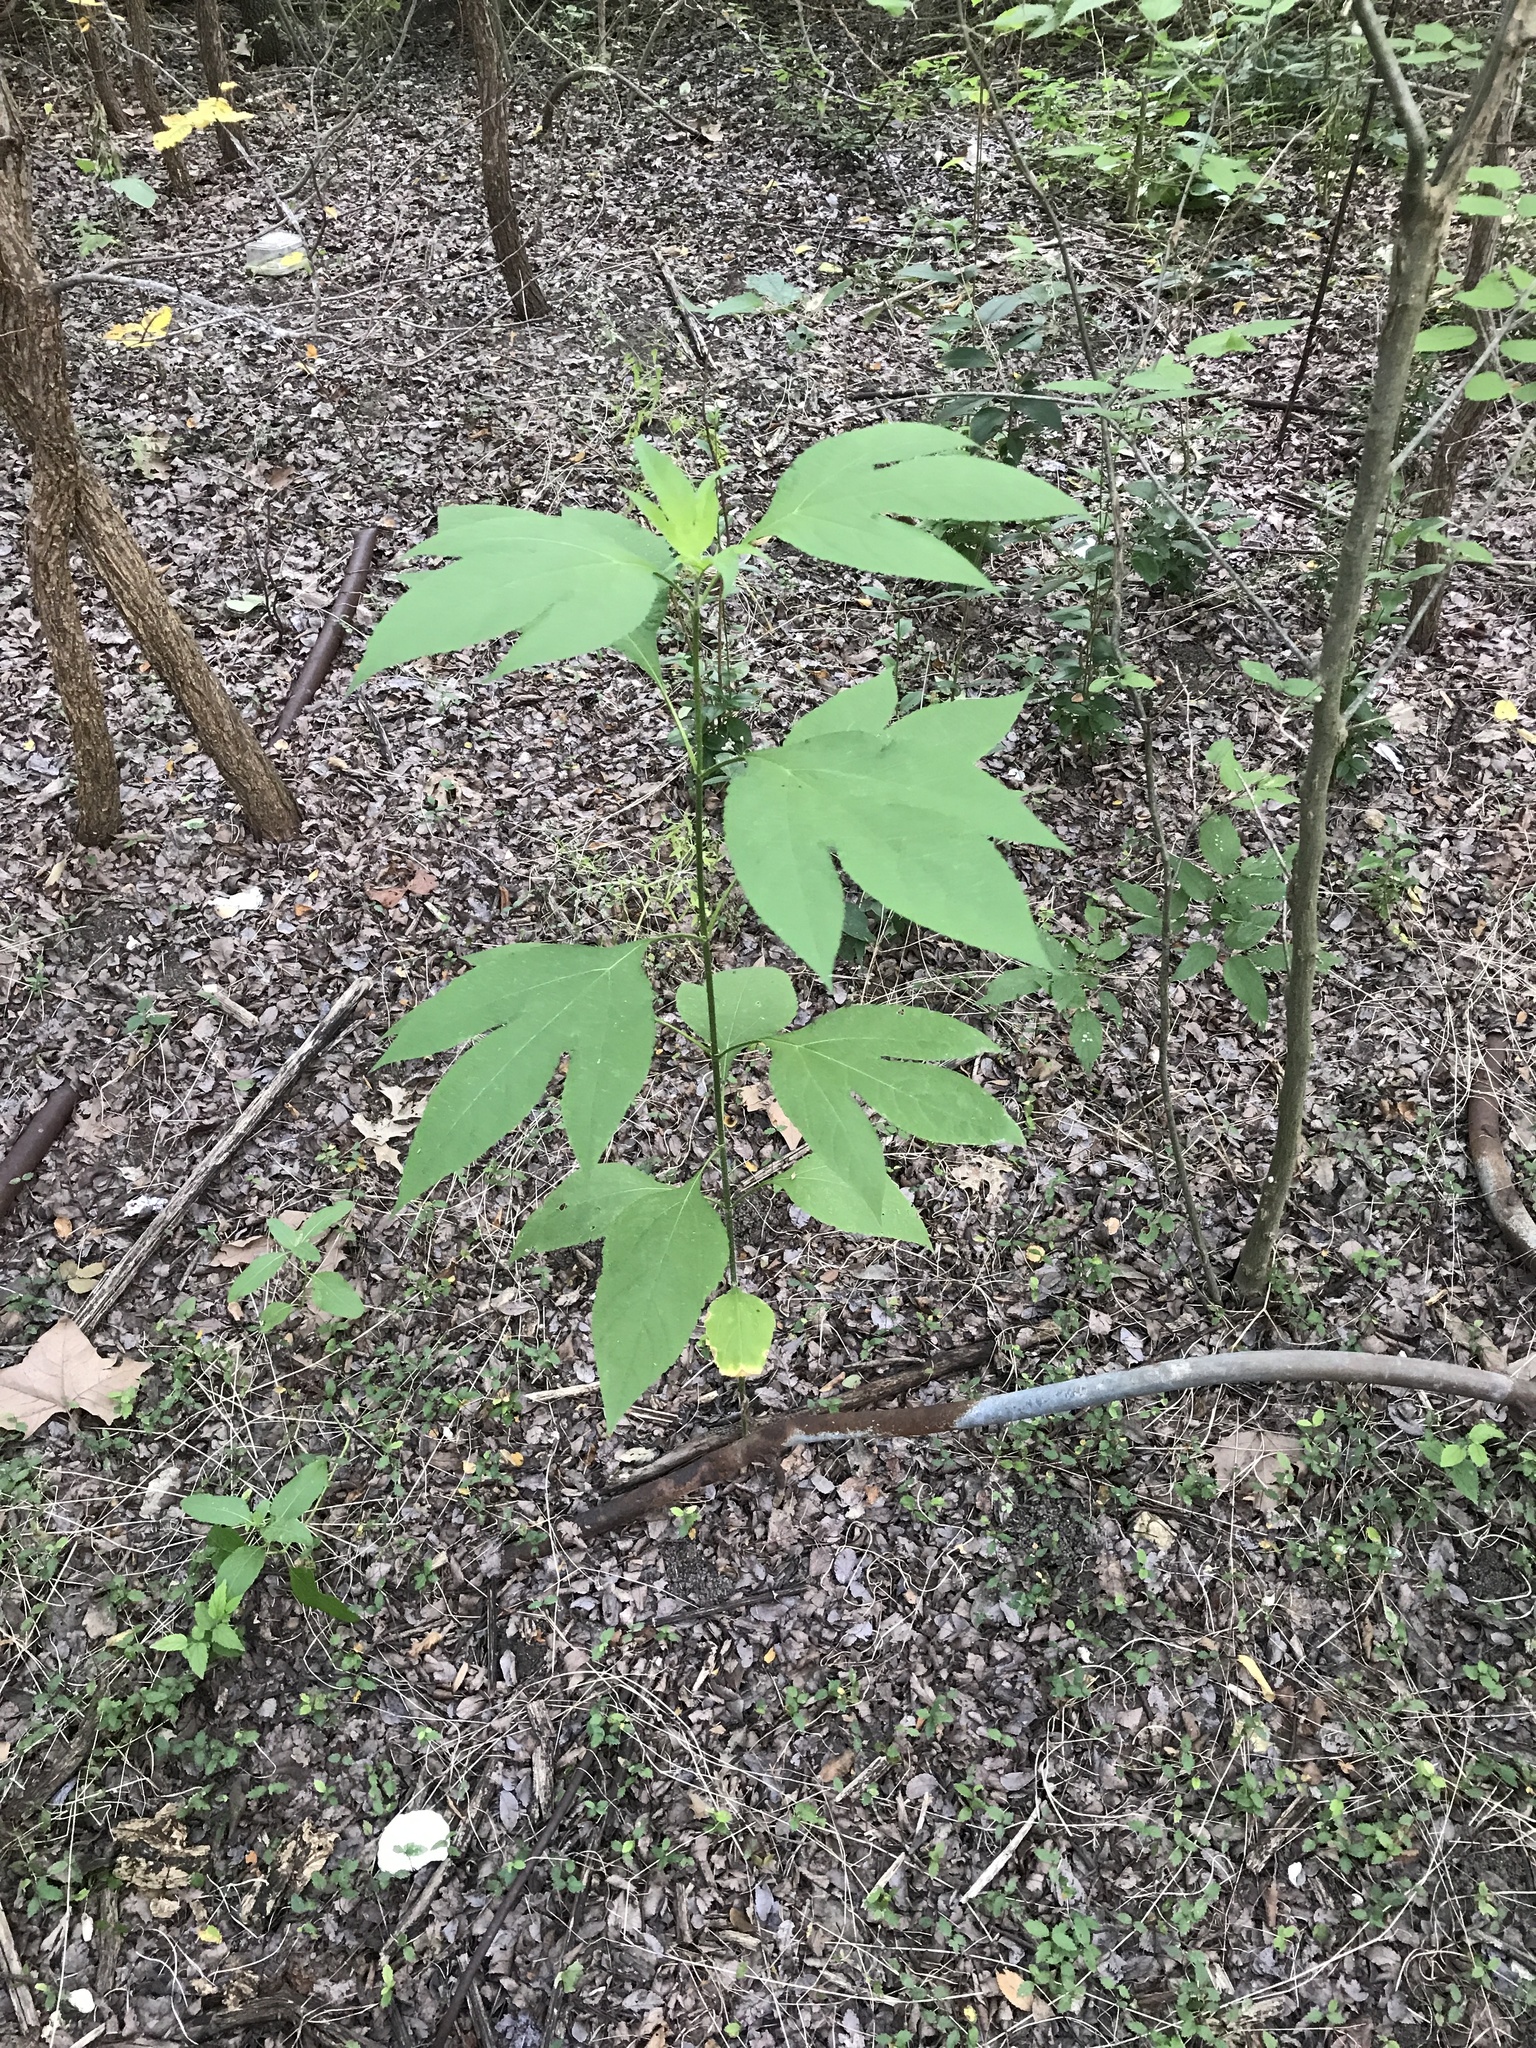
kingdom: Plantae
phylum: Tracheophyta
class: Magnoliopsida
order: Asterales
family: Asteraceae
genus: Ambrosia
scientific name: Ambrosia trifida
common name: Giant ragweed
